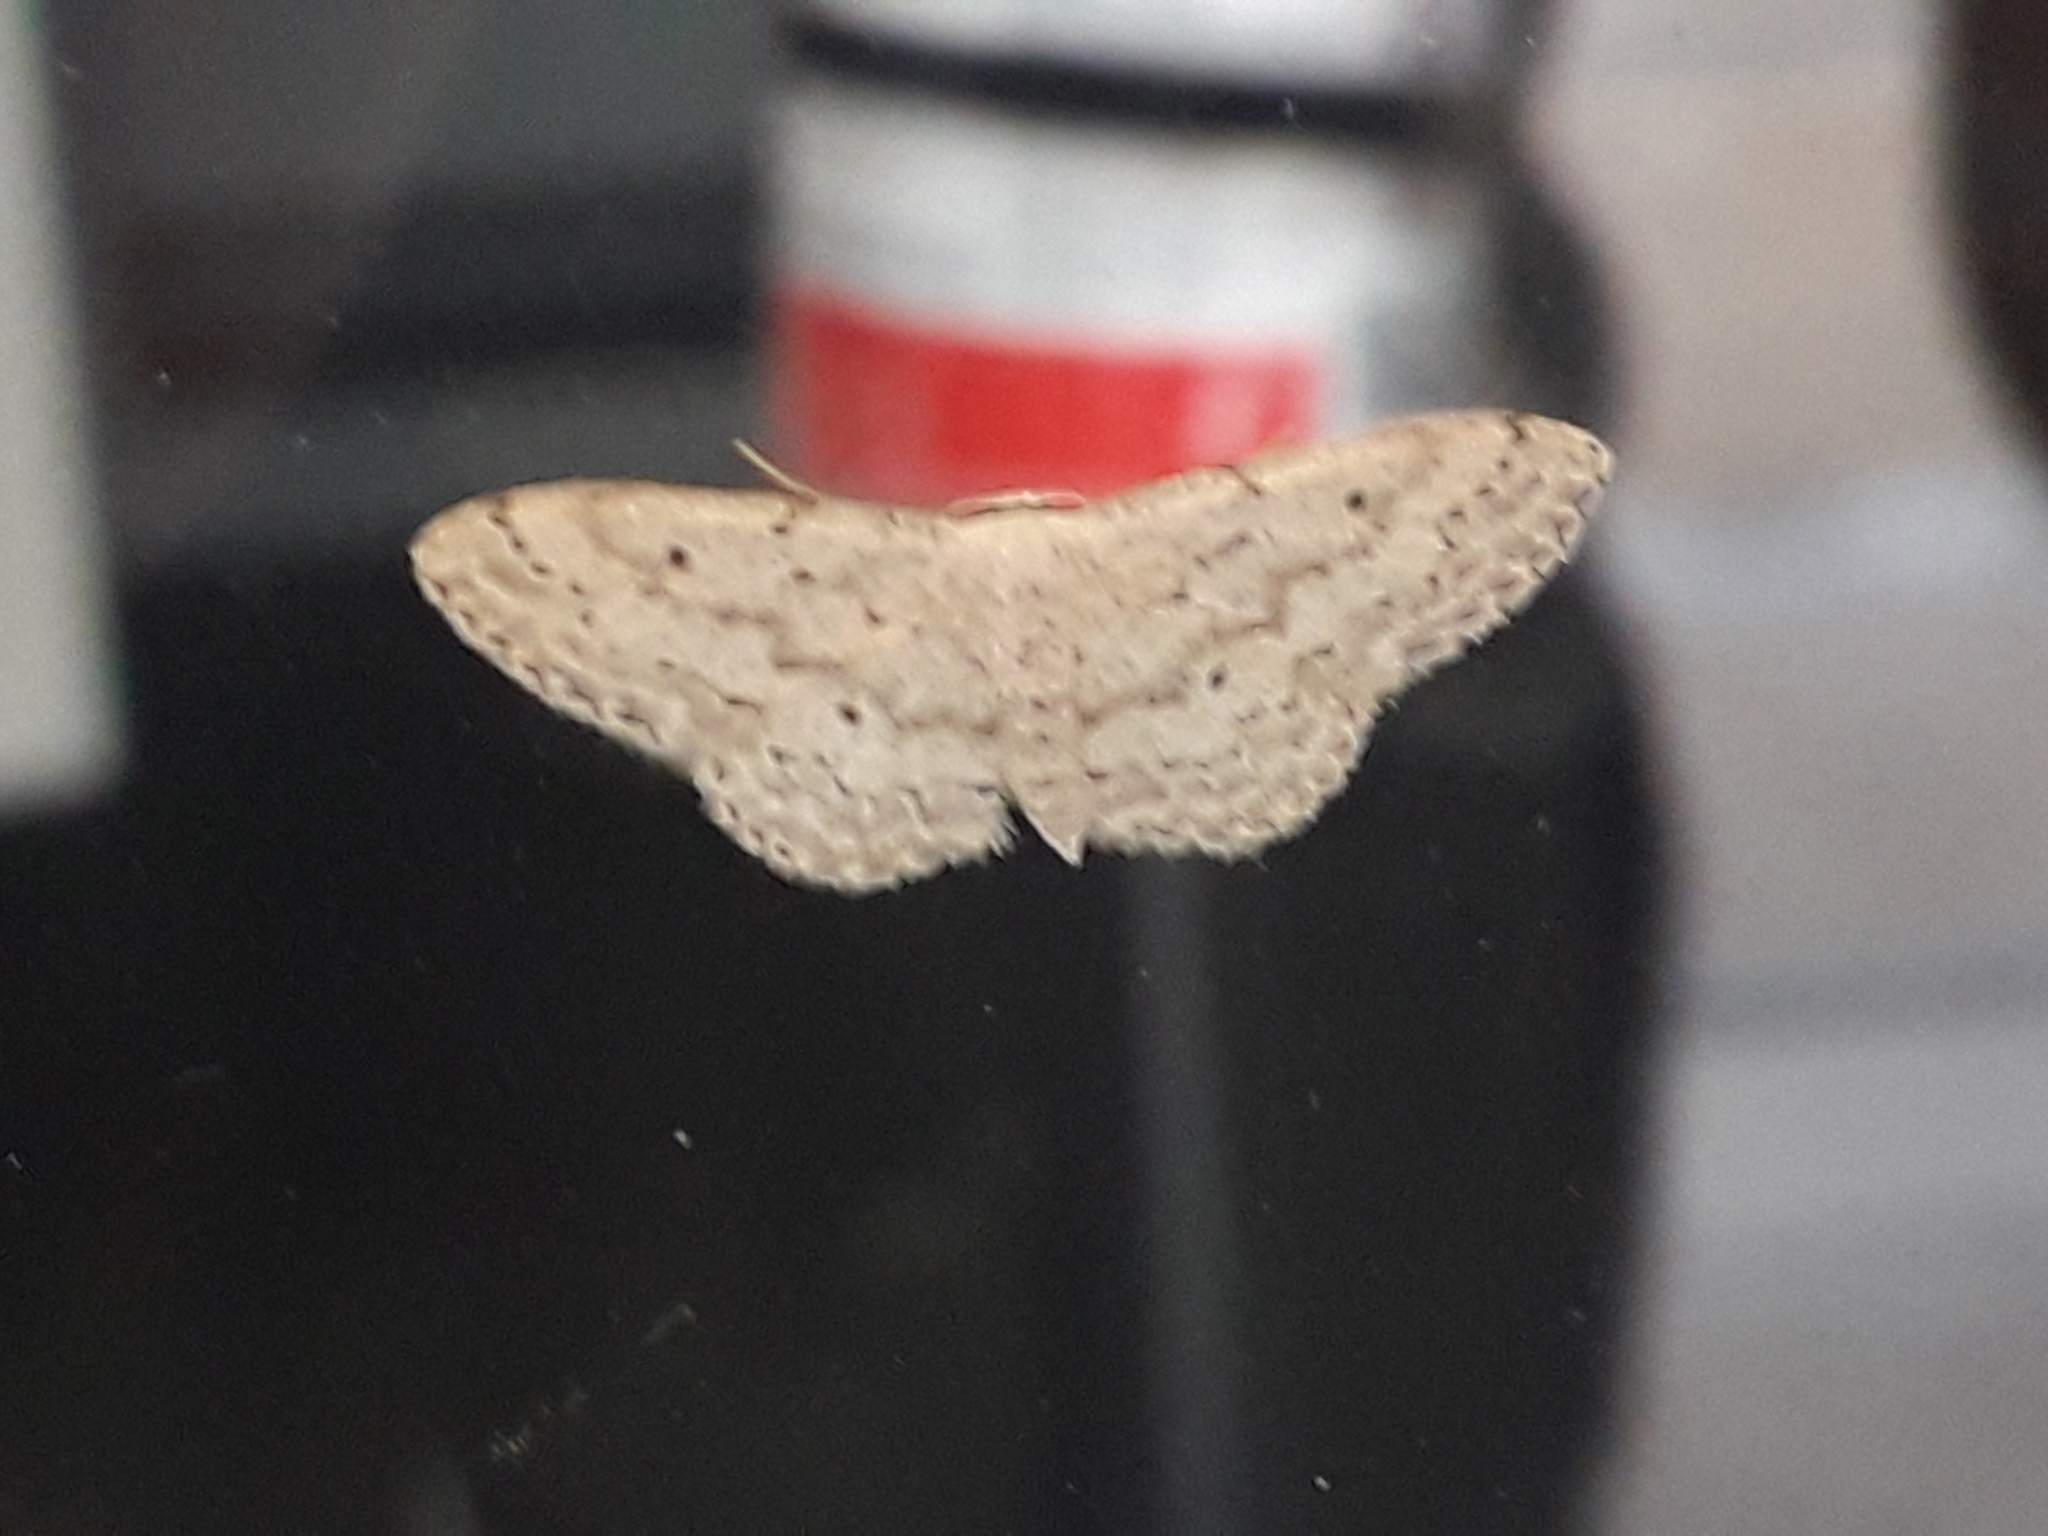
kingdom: Animalia
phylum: Arthropoda
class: Insecta
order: Lepidoptera
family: Geometridae
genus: Idaea
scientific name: Idaea seriata
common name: Small dusty wave
